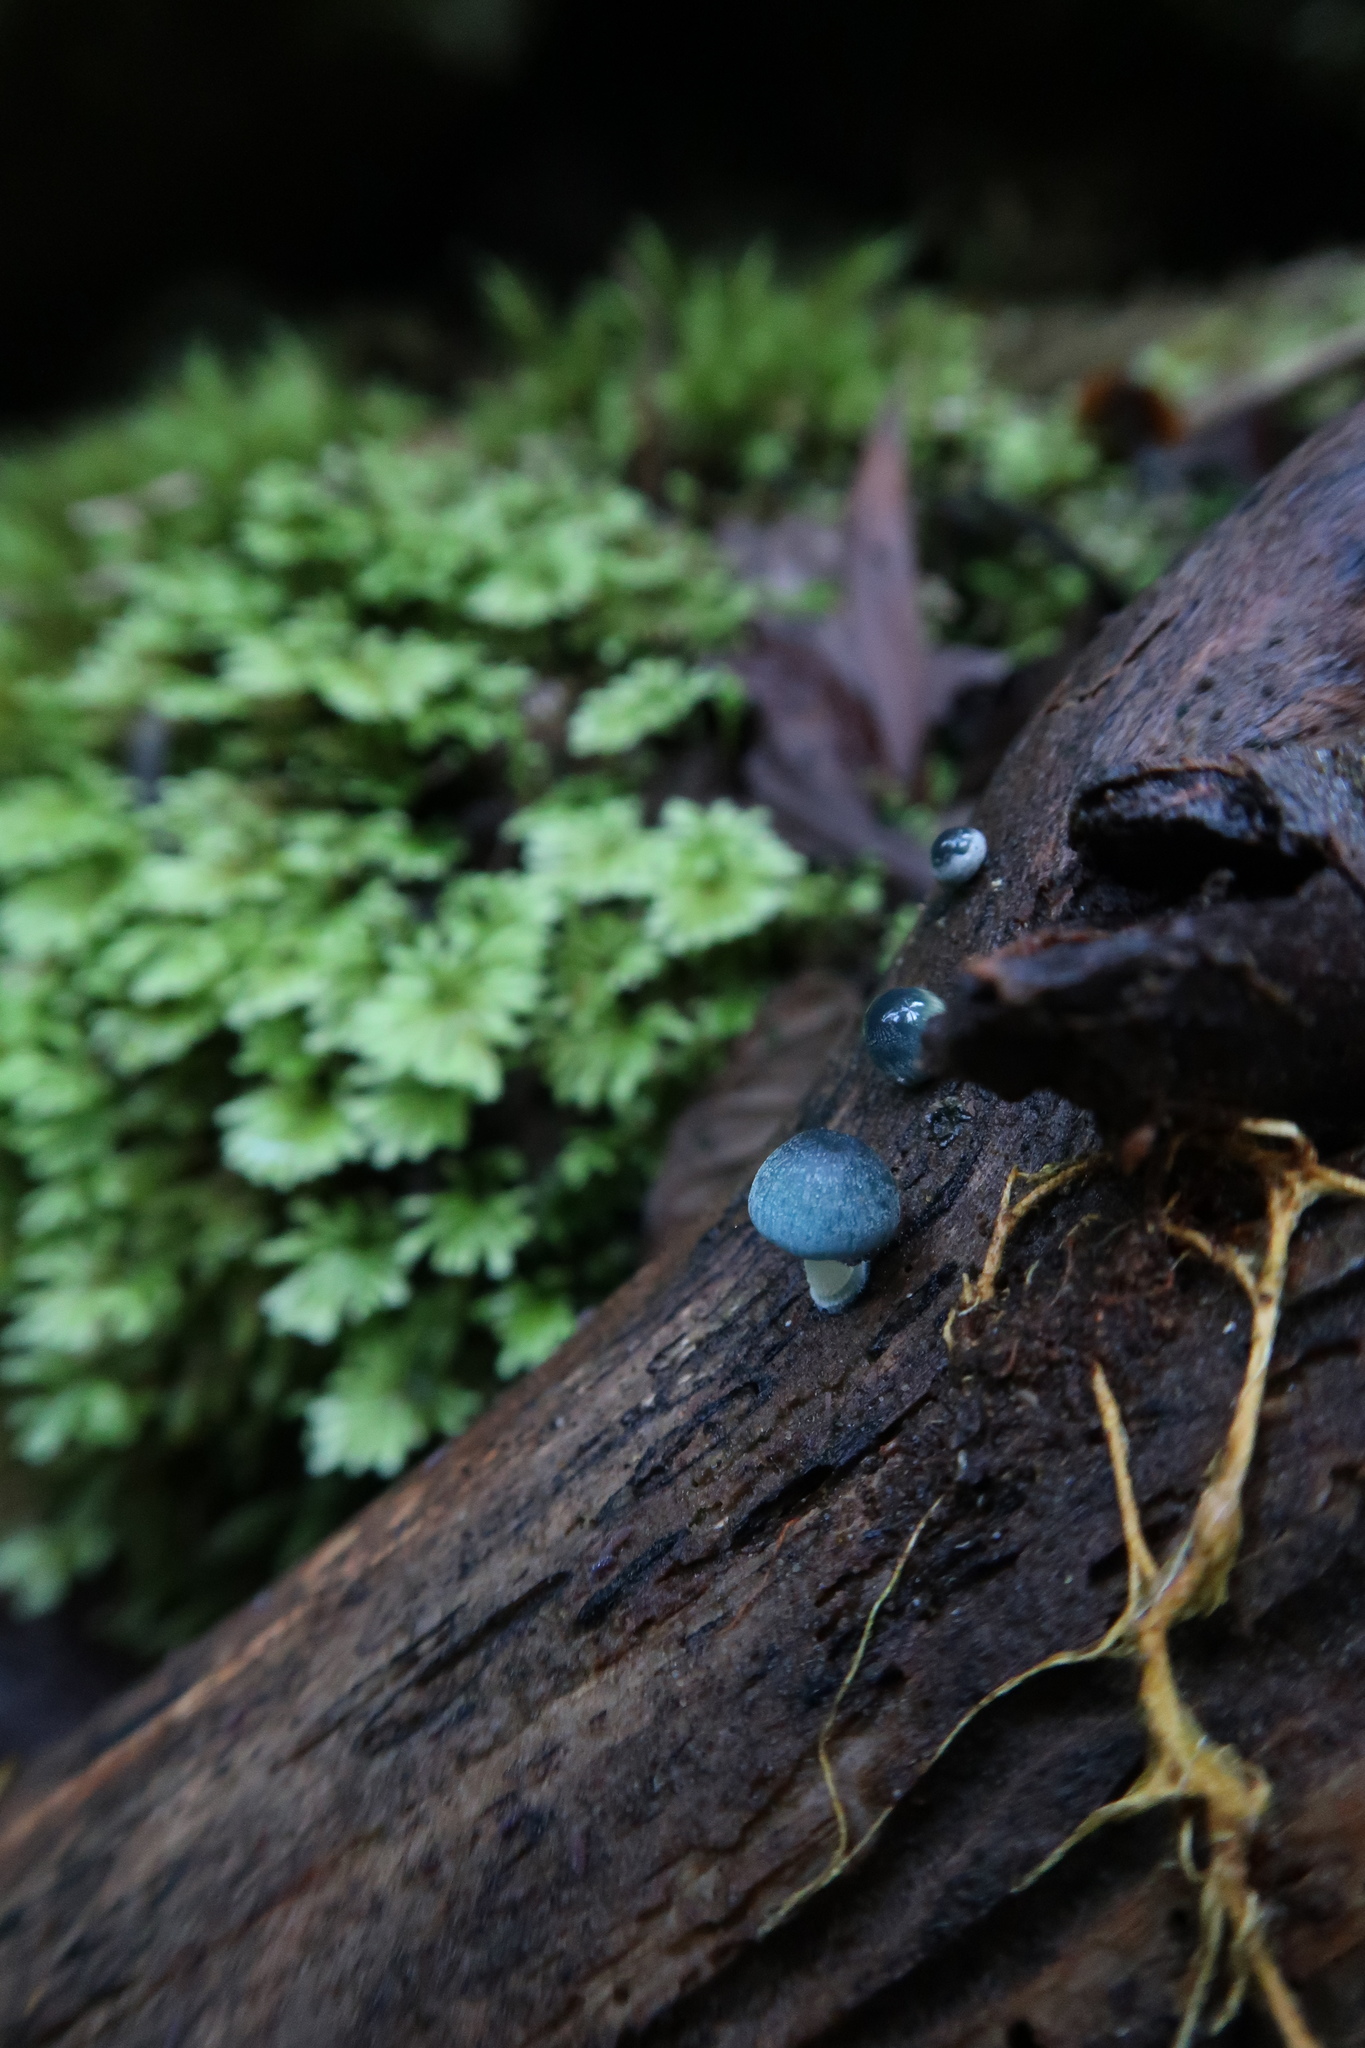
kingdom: Fungi
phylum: Basidiomycota
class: Agaricomycetes
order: Agaricales
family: Mycenaceae
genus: Mycena
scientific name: Mycena interrupta
